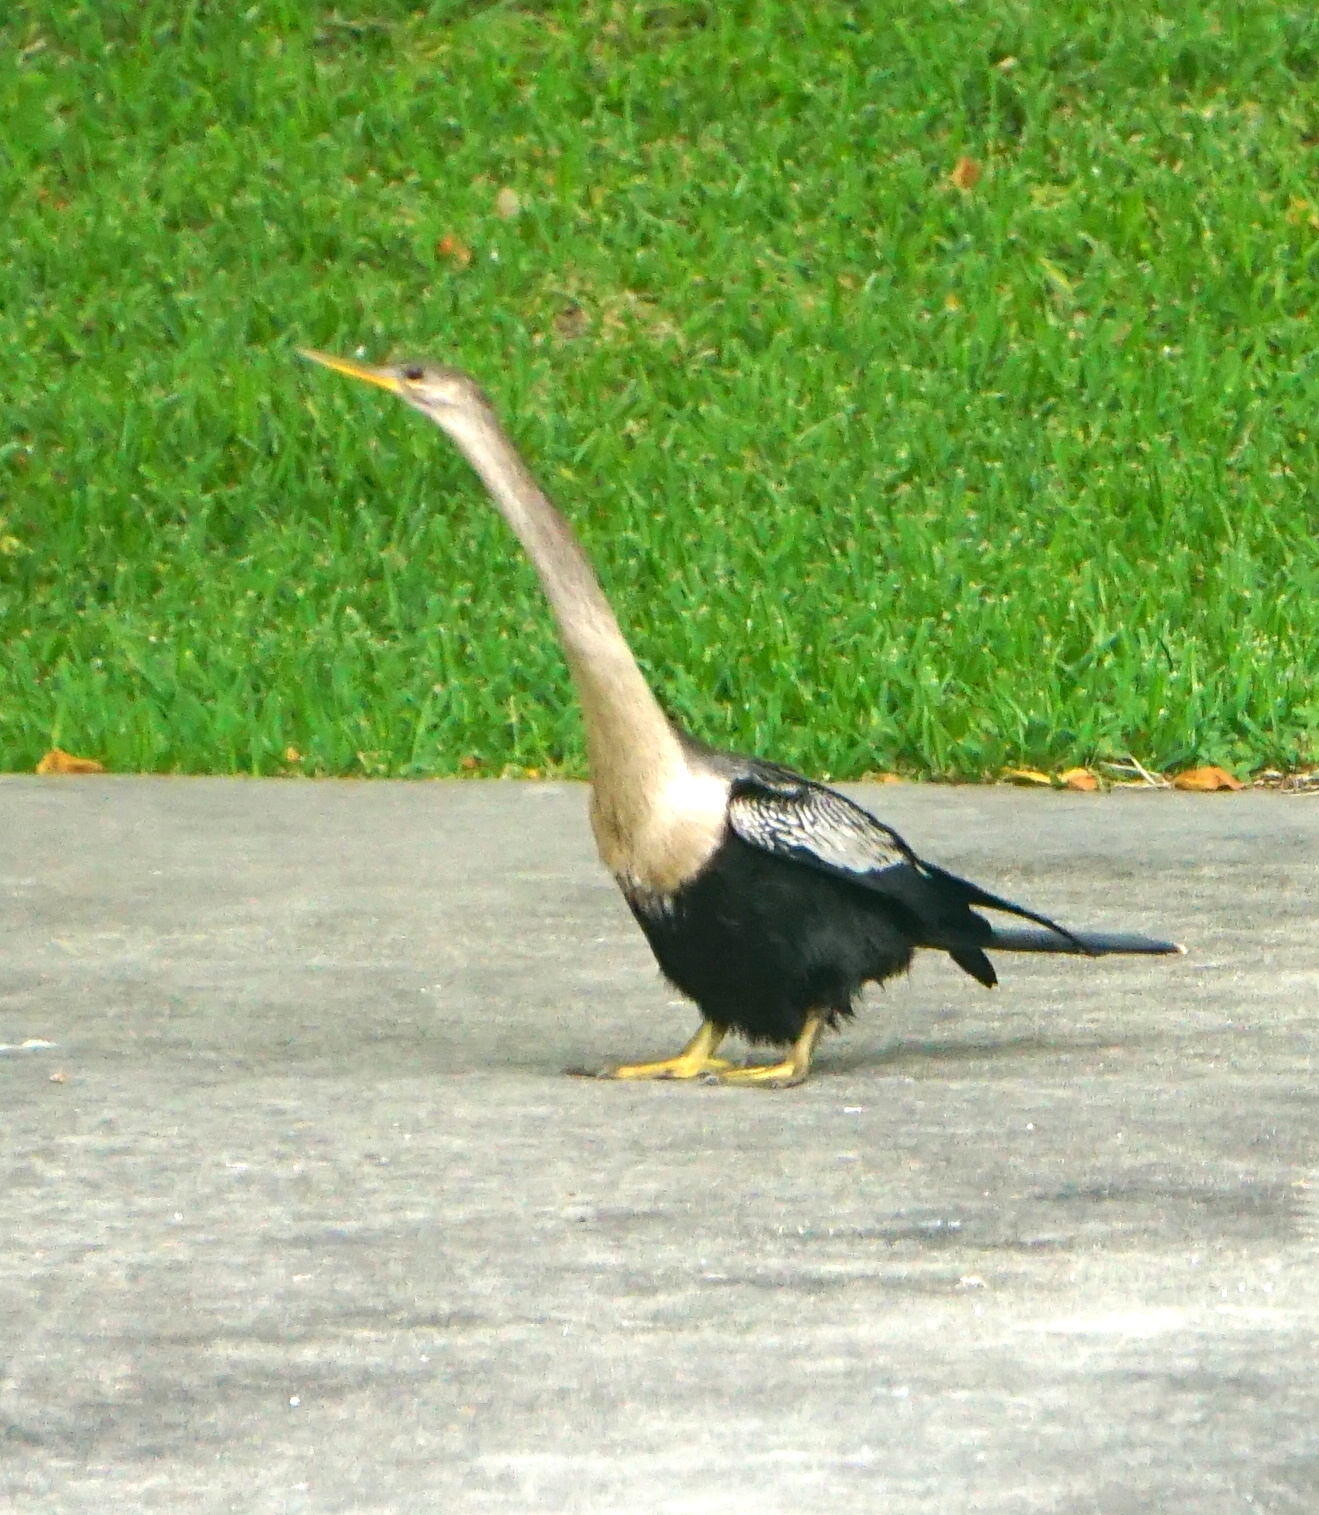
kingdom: Animalia
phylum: Chordata
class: Aves
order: Suliformes
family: Anhingidae
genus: Anhinga
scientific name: Anhinga anhinga
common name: Anhinga
